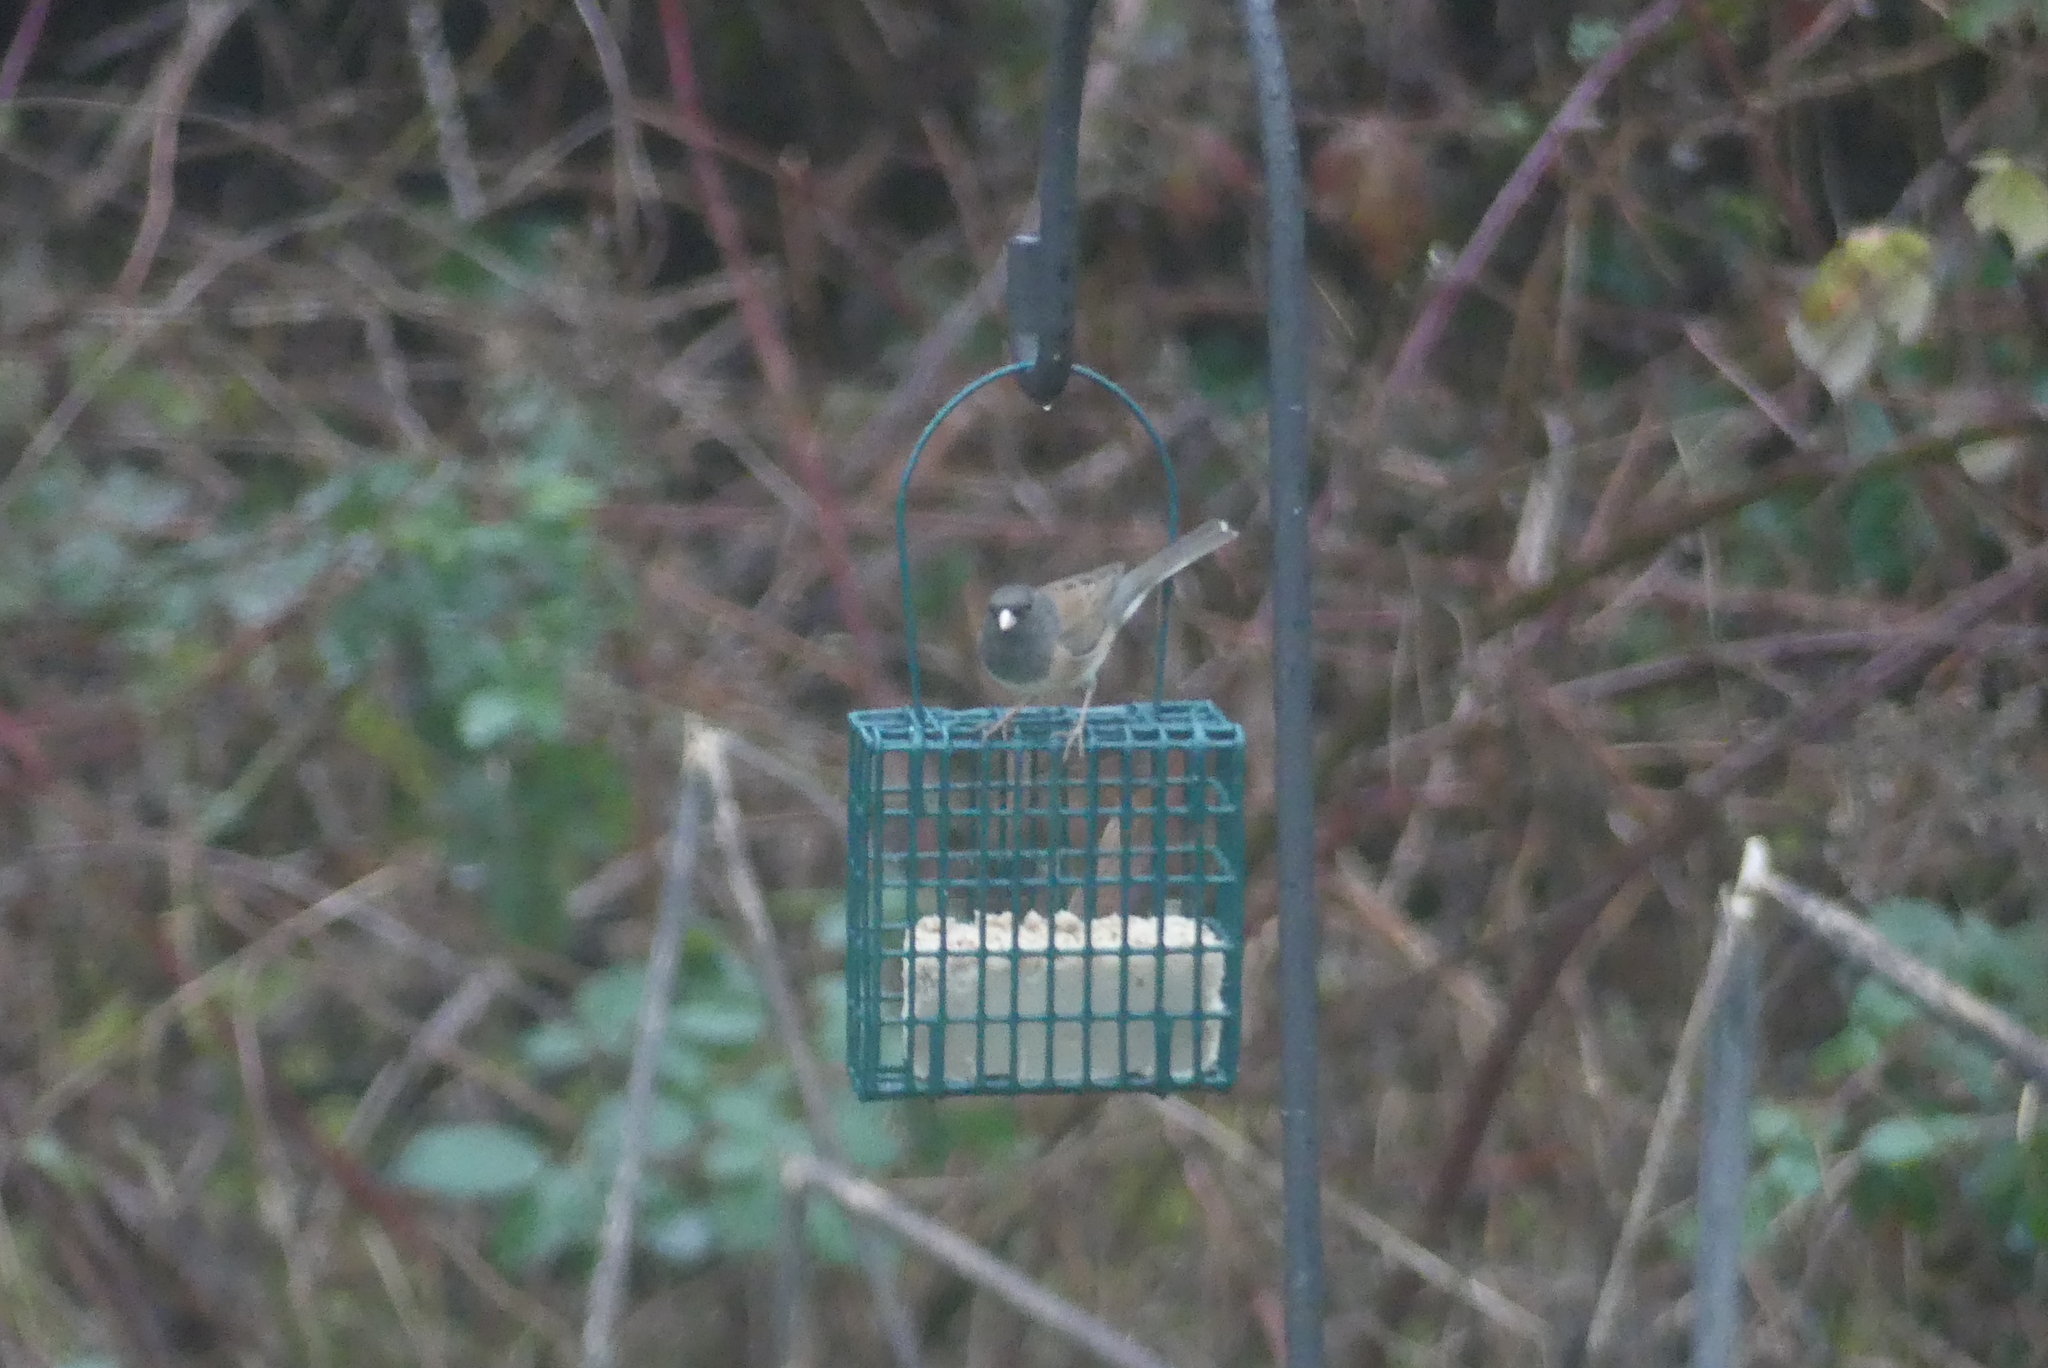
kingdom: Animalia
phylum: Chordata
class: Aves
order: Passeriformes
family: Passerellidae
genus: Junco
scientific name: Junco hyemalis
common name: Dark-eyed junco
